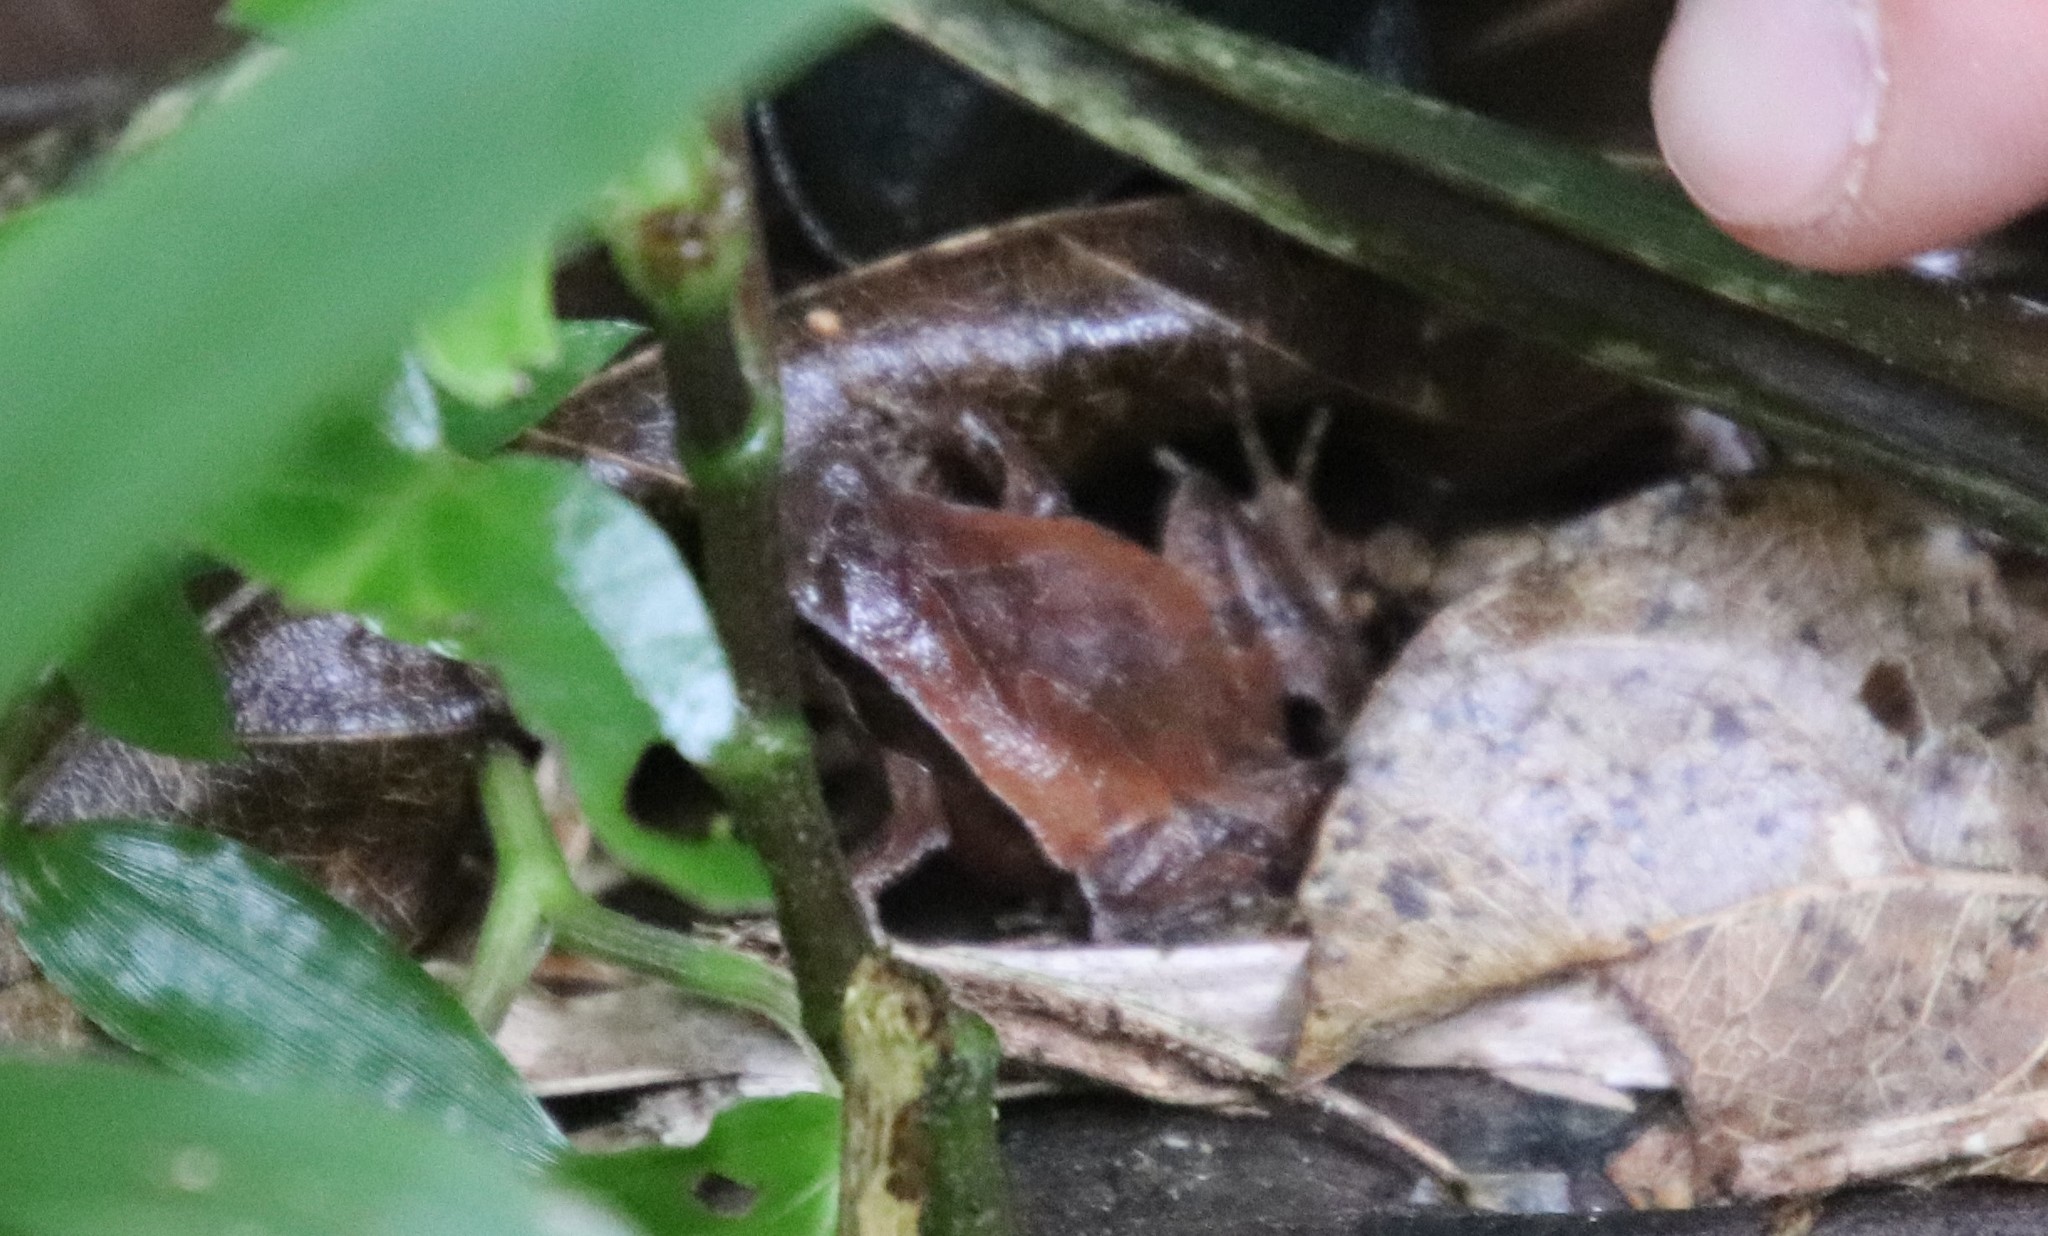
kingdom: Animalia
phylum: Chordata
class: Amphibia
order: Anura
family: Leptodactylidae
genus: Physalaemus
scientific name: Physalaemus atlanticus
